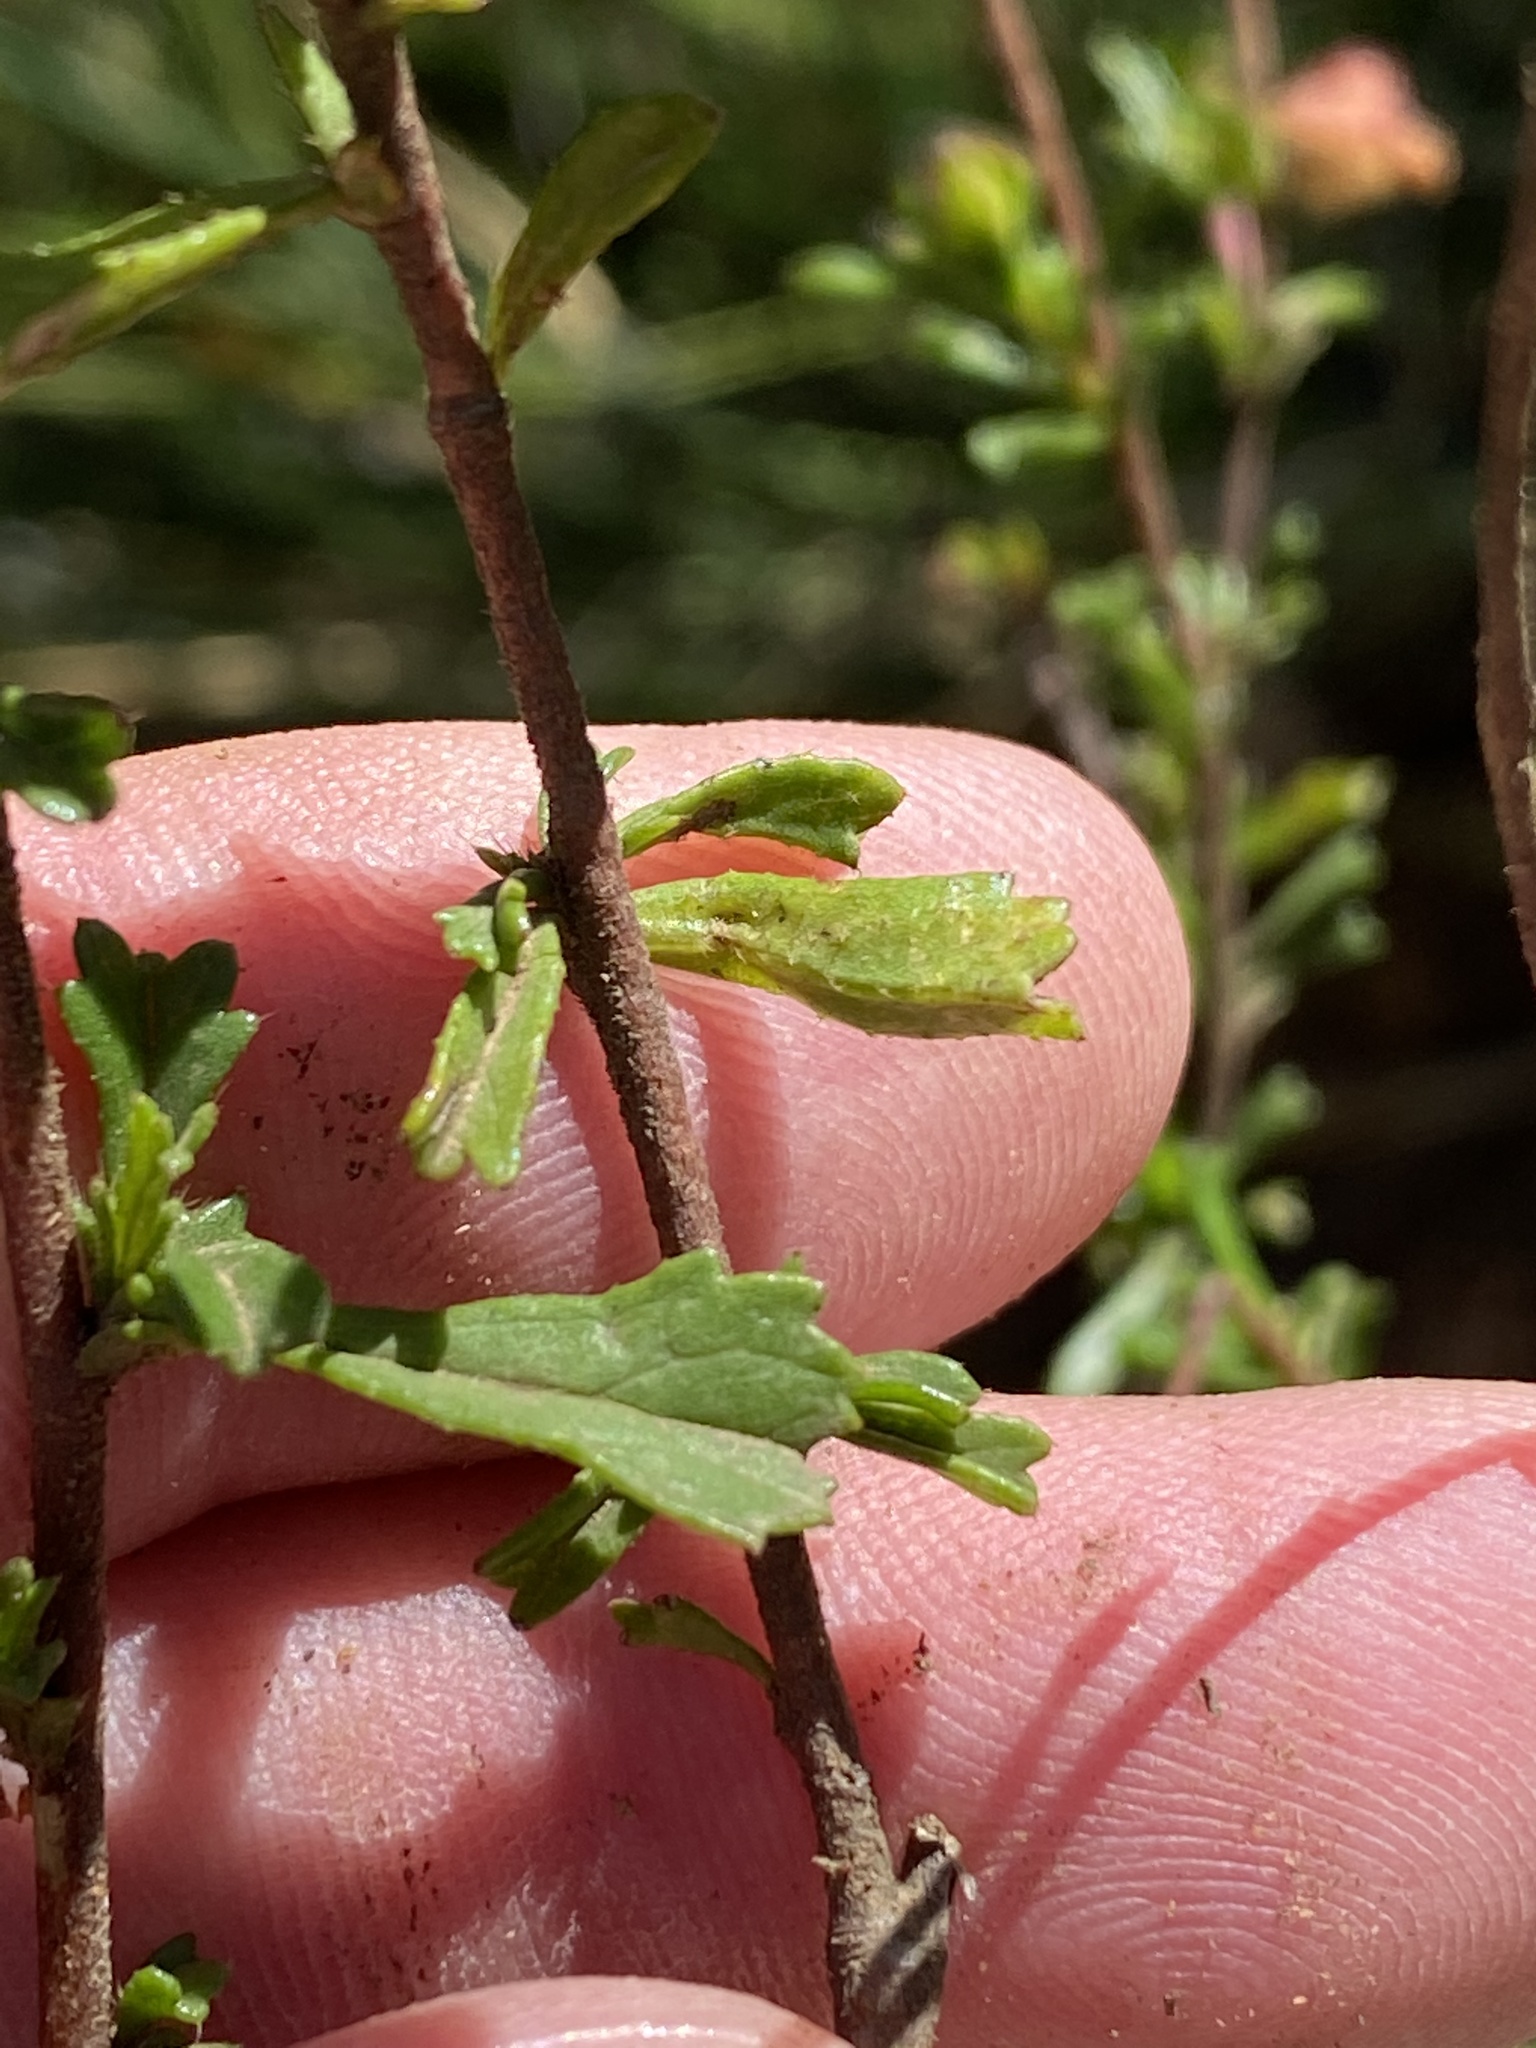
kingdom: Plantae
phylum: Tracheophyta
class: Magnoliopsida
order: Malvales
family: Malvaceae
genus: Hermannia
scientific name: Hermannia angularis
